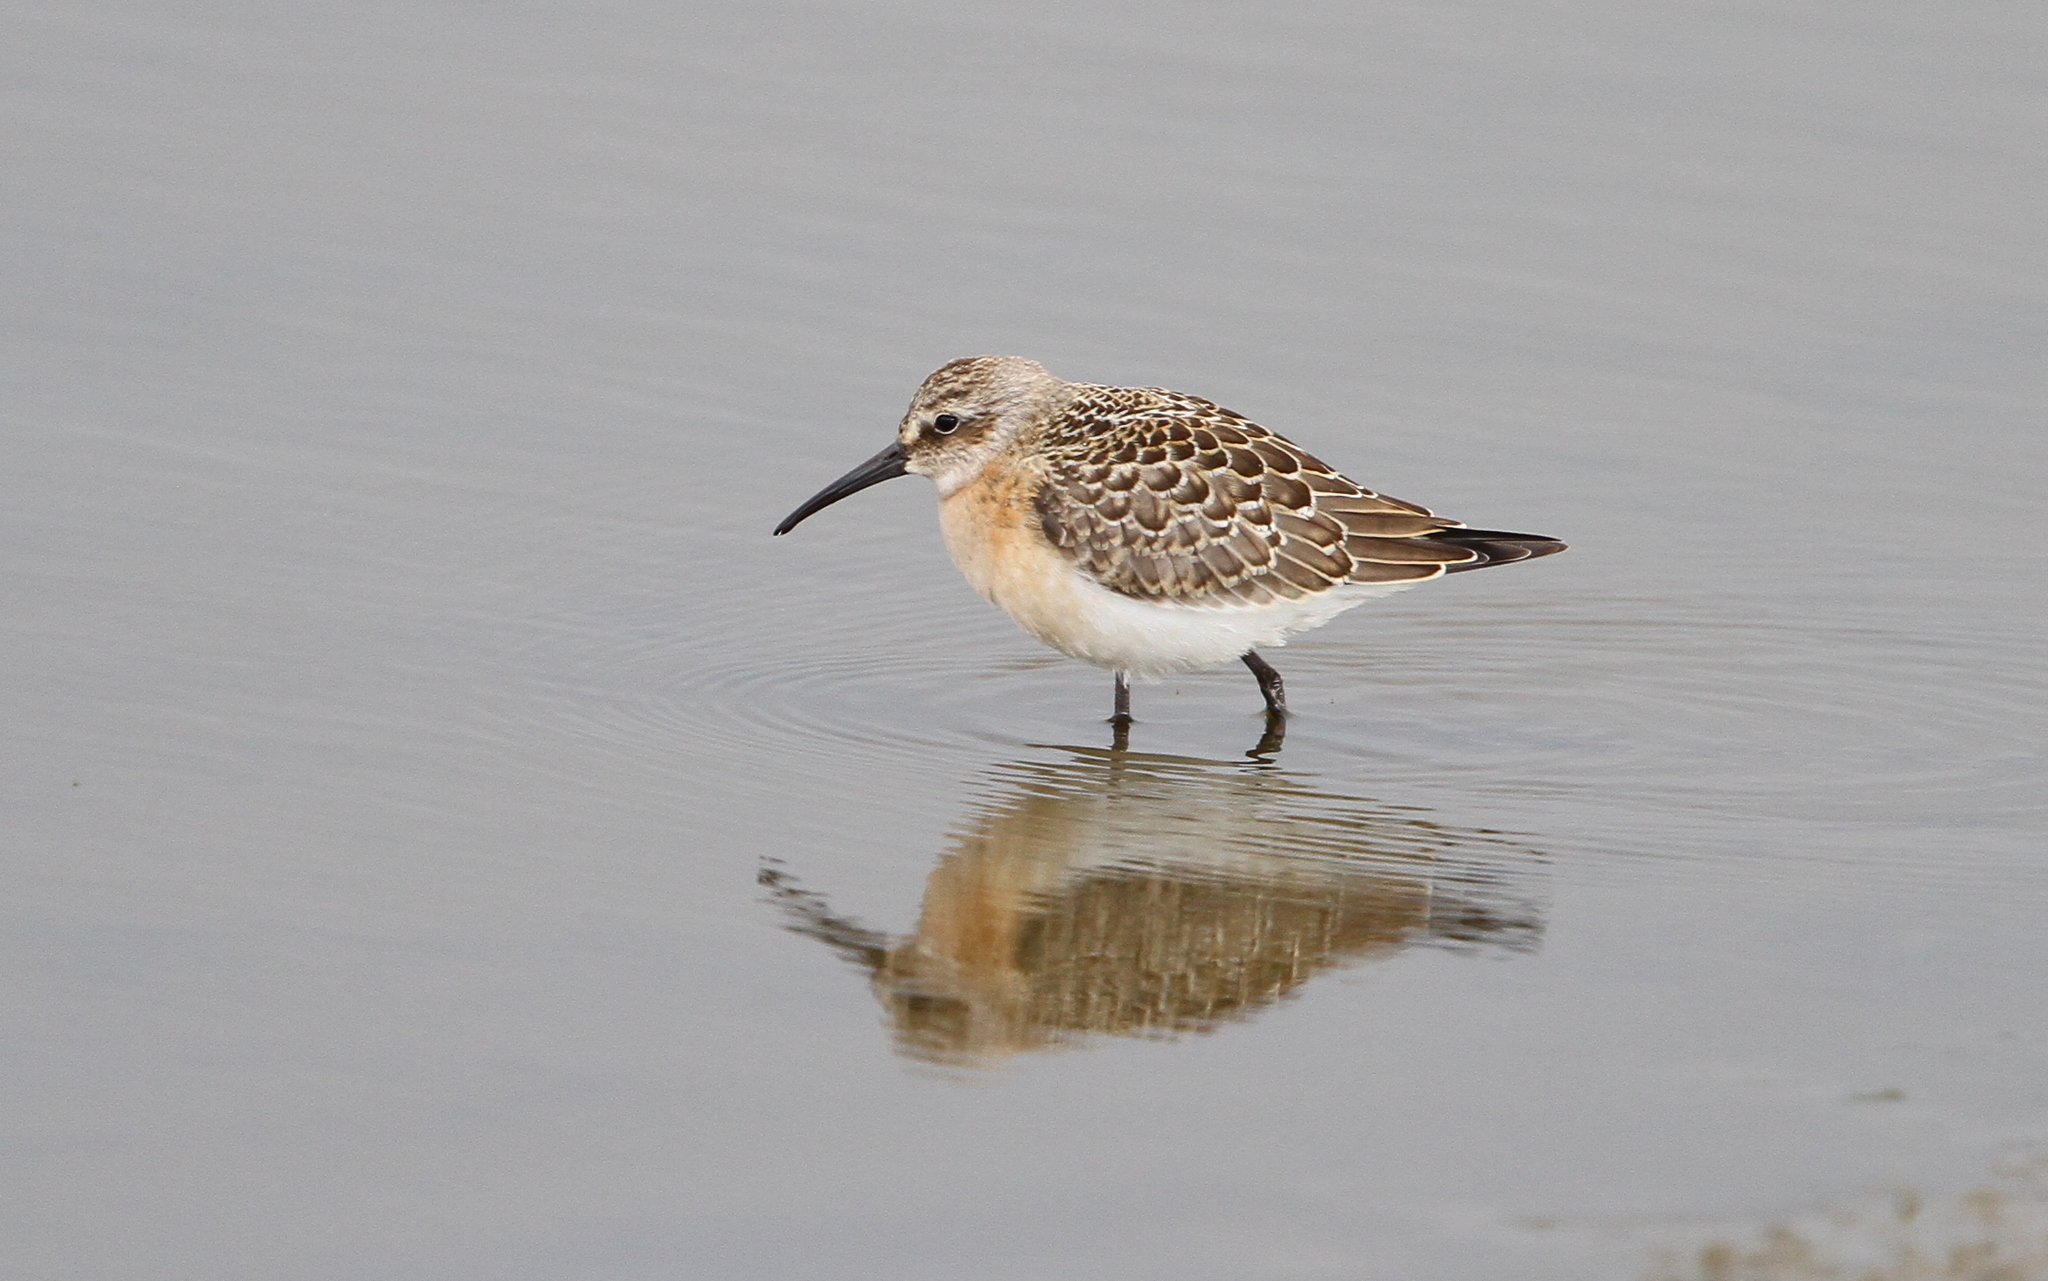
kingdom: Animalia
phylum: Chordata
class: Aves
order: Charadriiformes
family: Scolopacidae
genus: Calidris
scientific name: Calidris ferruginea
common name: Curlew sandpiper
